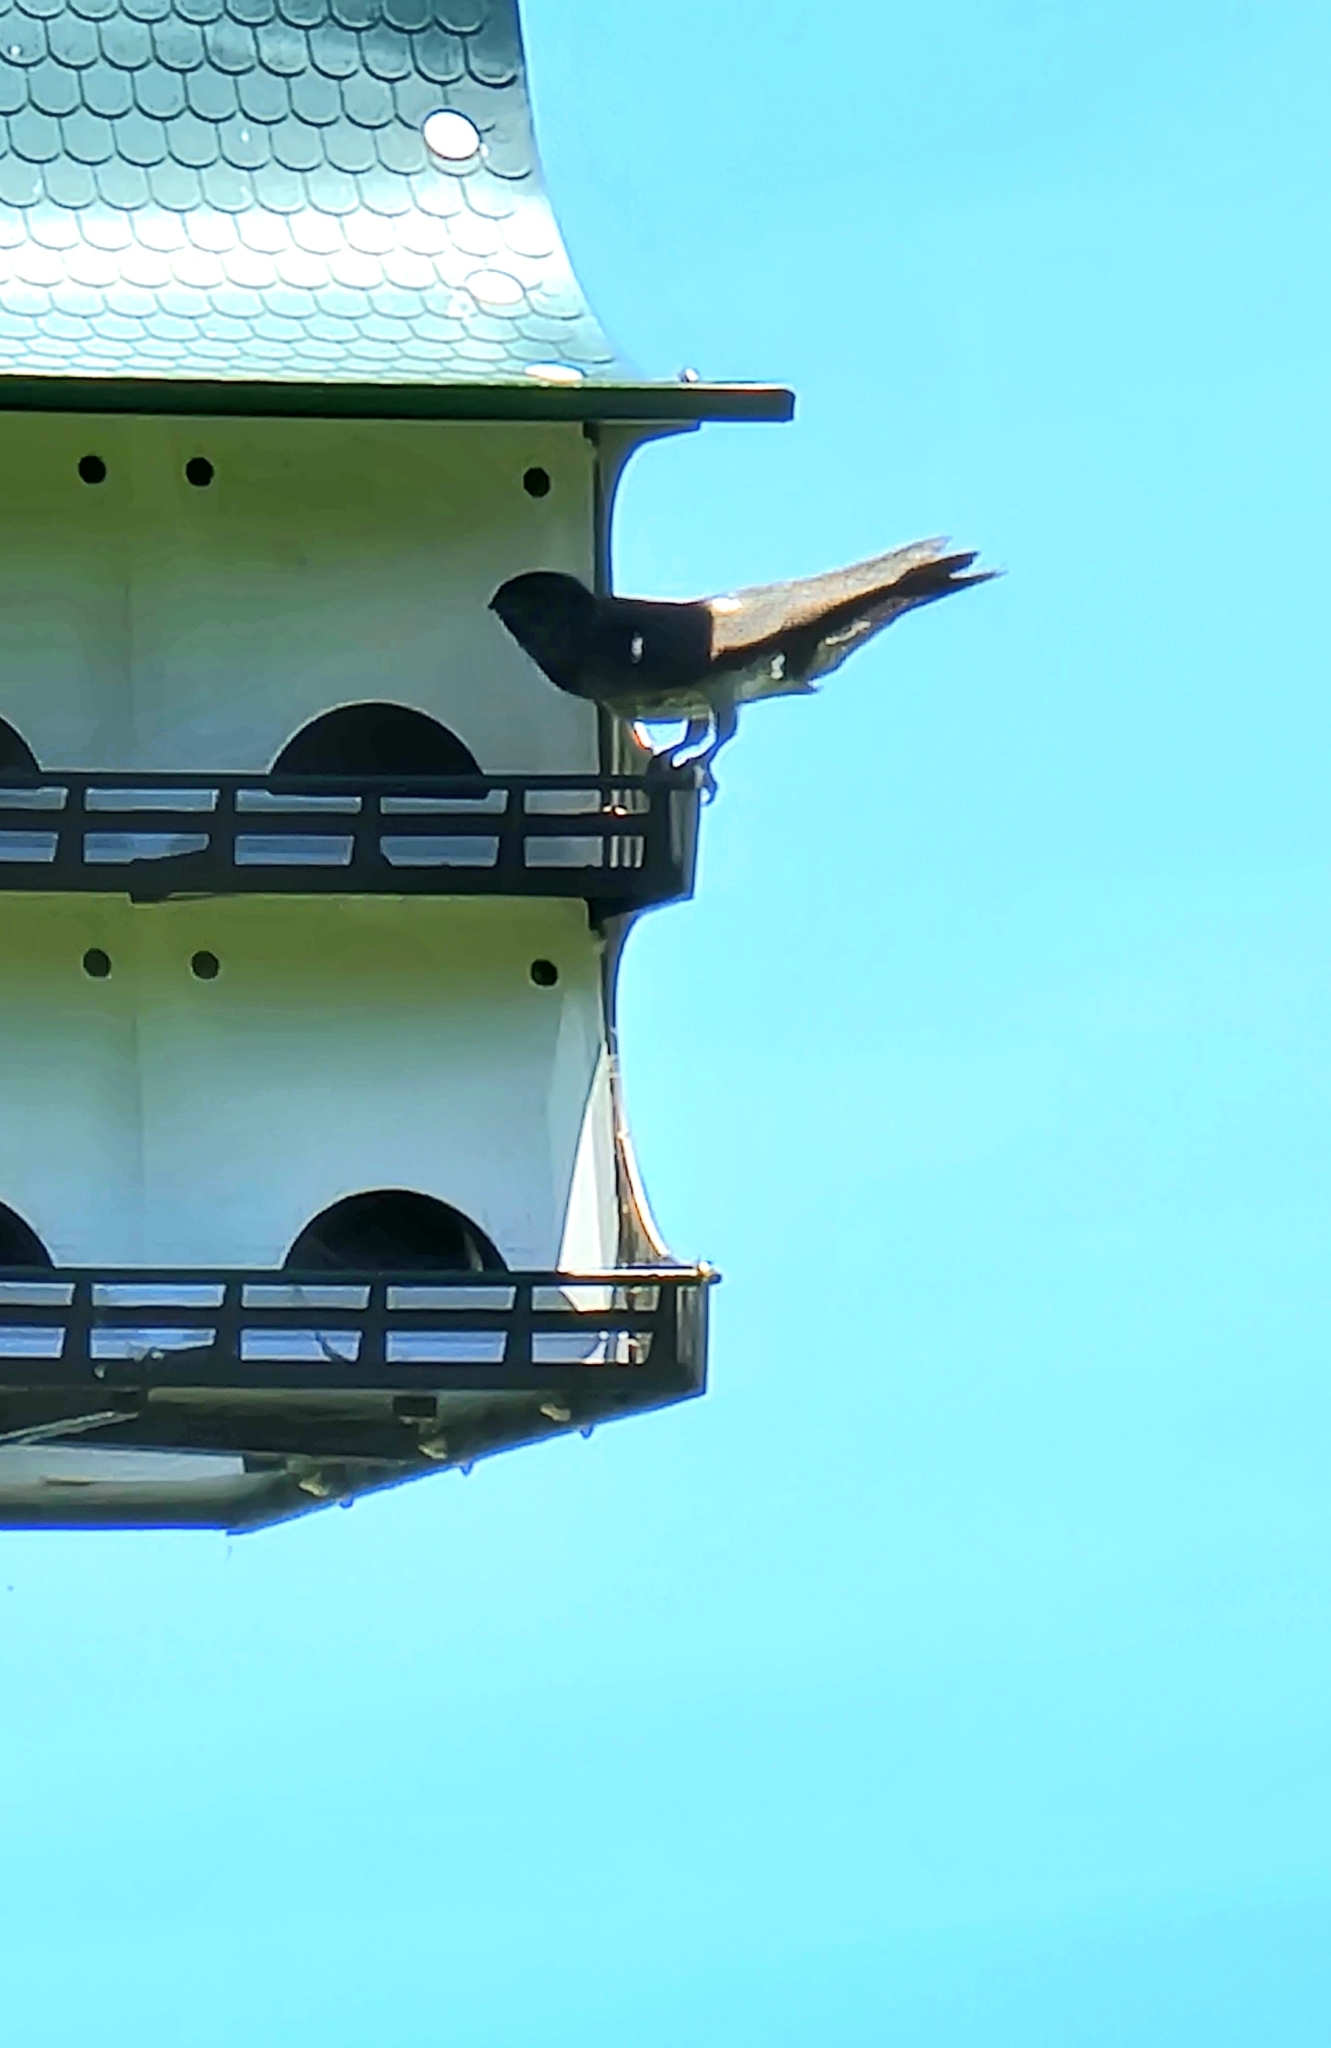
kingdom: Animalia
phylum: Chordata
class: Aves
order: Passeriformes
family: Hirundinidae
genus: Progne
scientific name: Progne subis
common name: Purple martin
